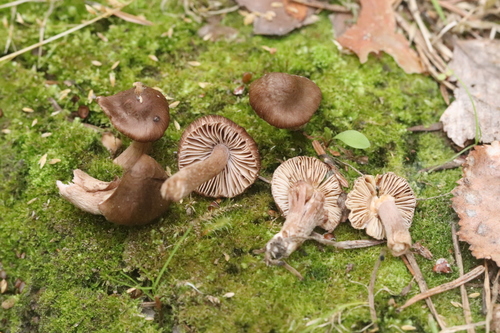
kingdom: Fungi
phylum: Basidiomycota
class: Agaricomycetes
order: Agaricales
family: Inocybaceae
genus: Inocybe
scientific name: Inocybe soluta
